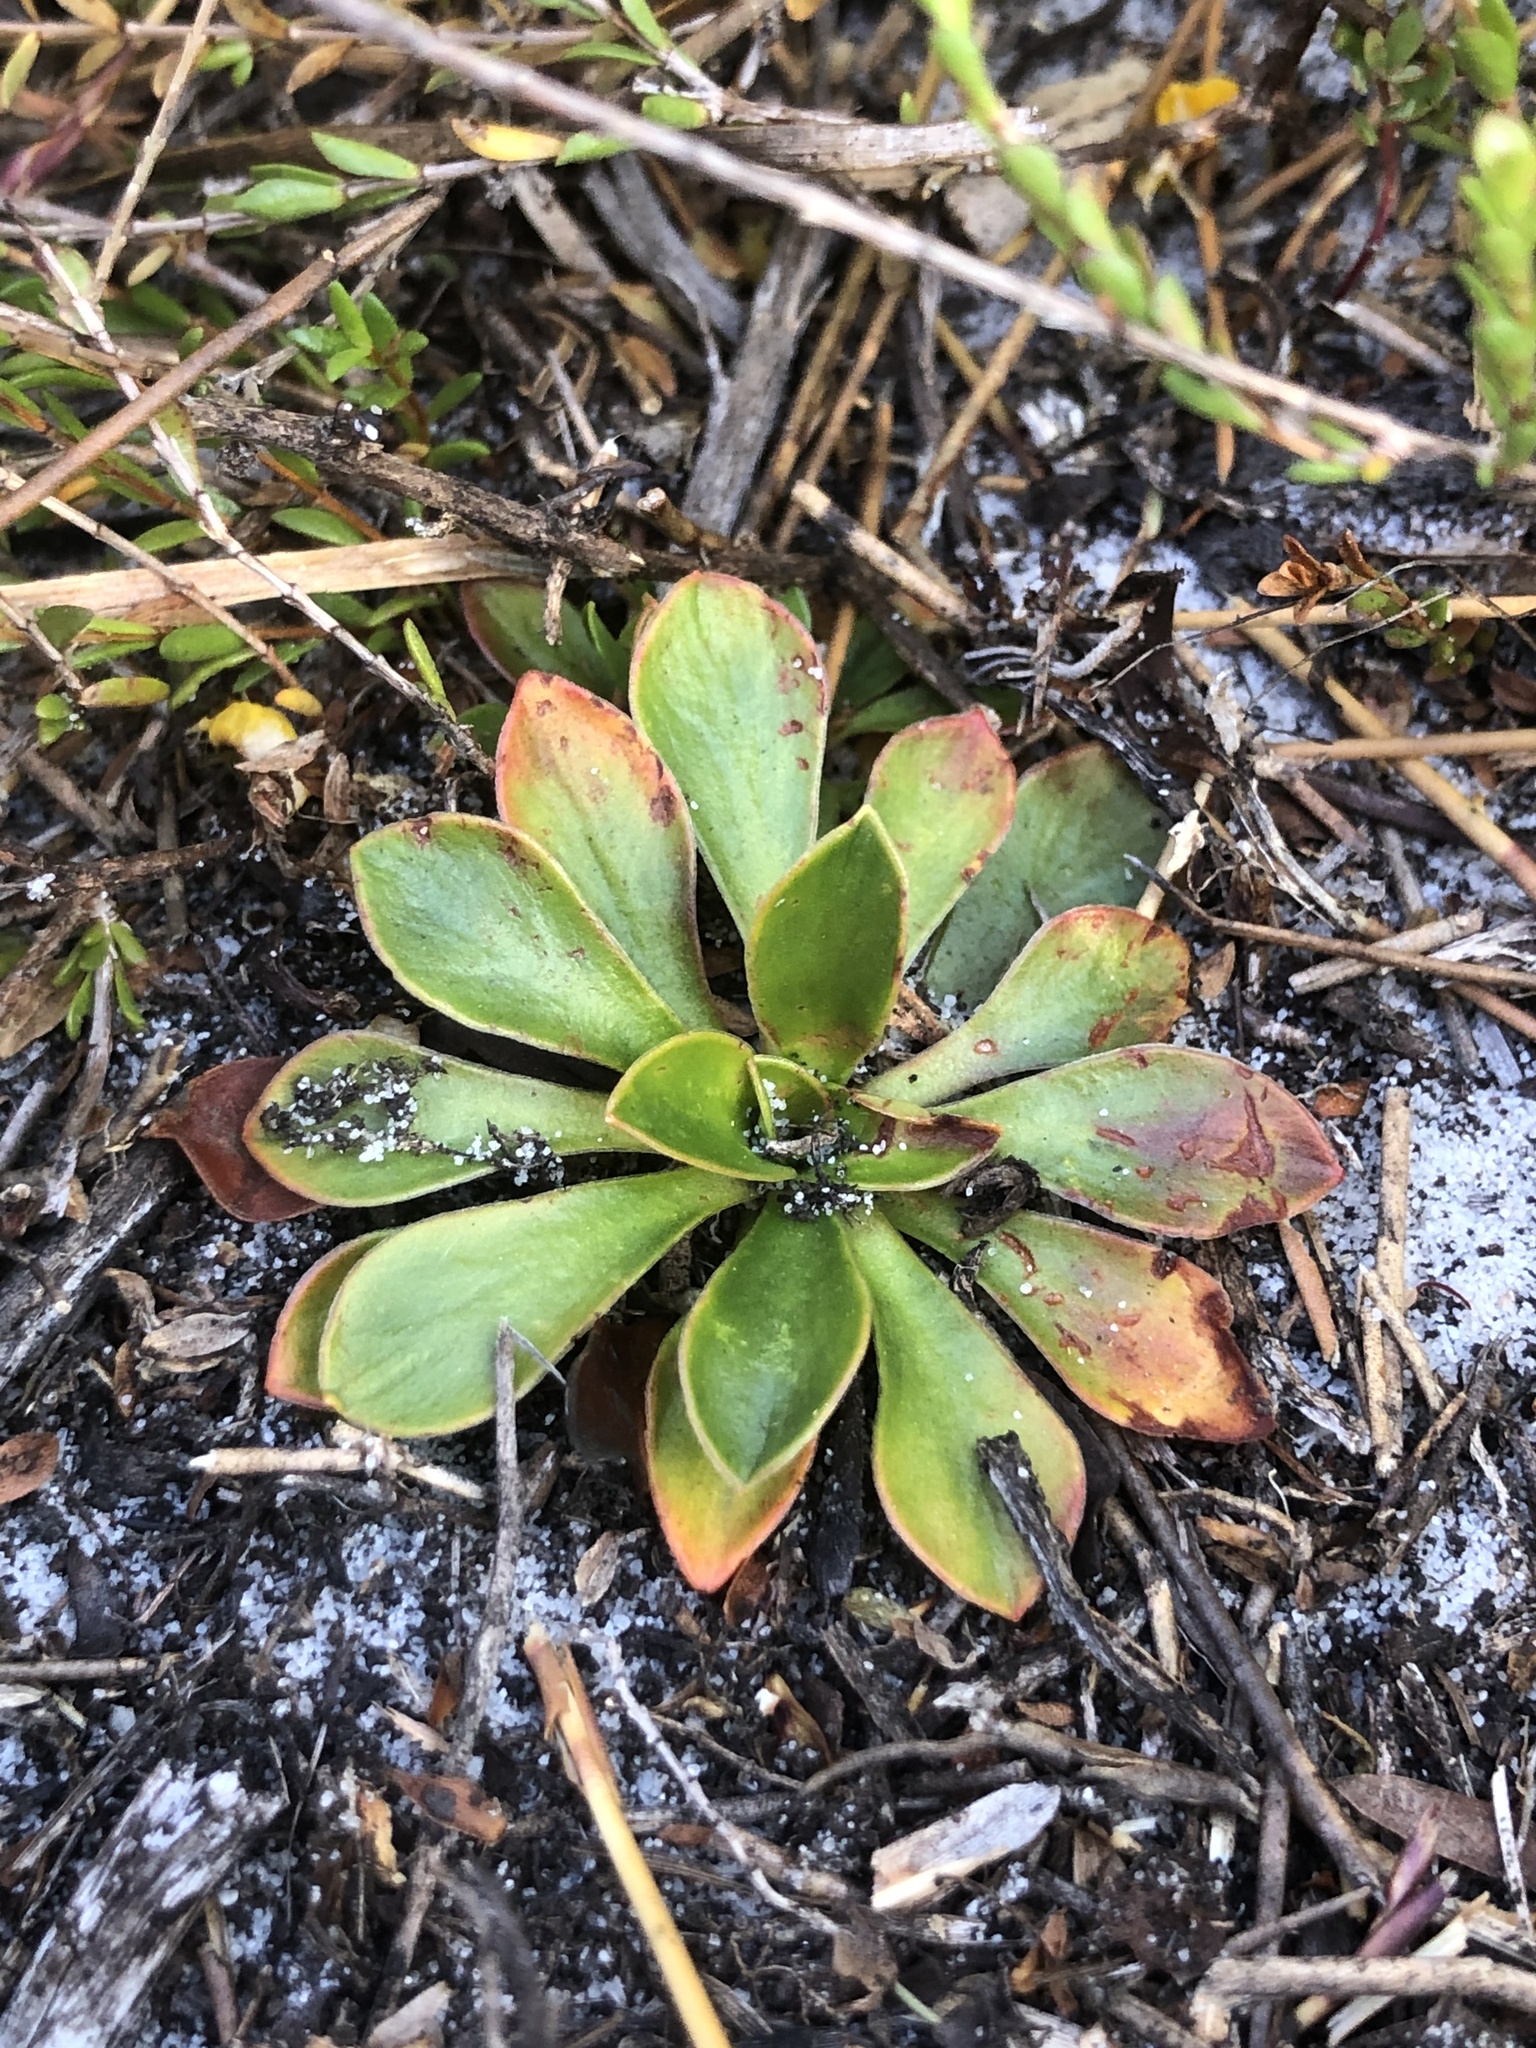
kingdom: Plantae
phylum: Tracheophyta
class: Magnoliopsida
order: Asterales
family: Stylidiaceae
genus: Stylidium
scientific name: Stylidium ornatum
